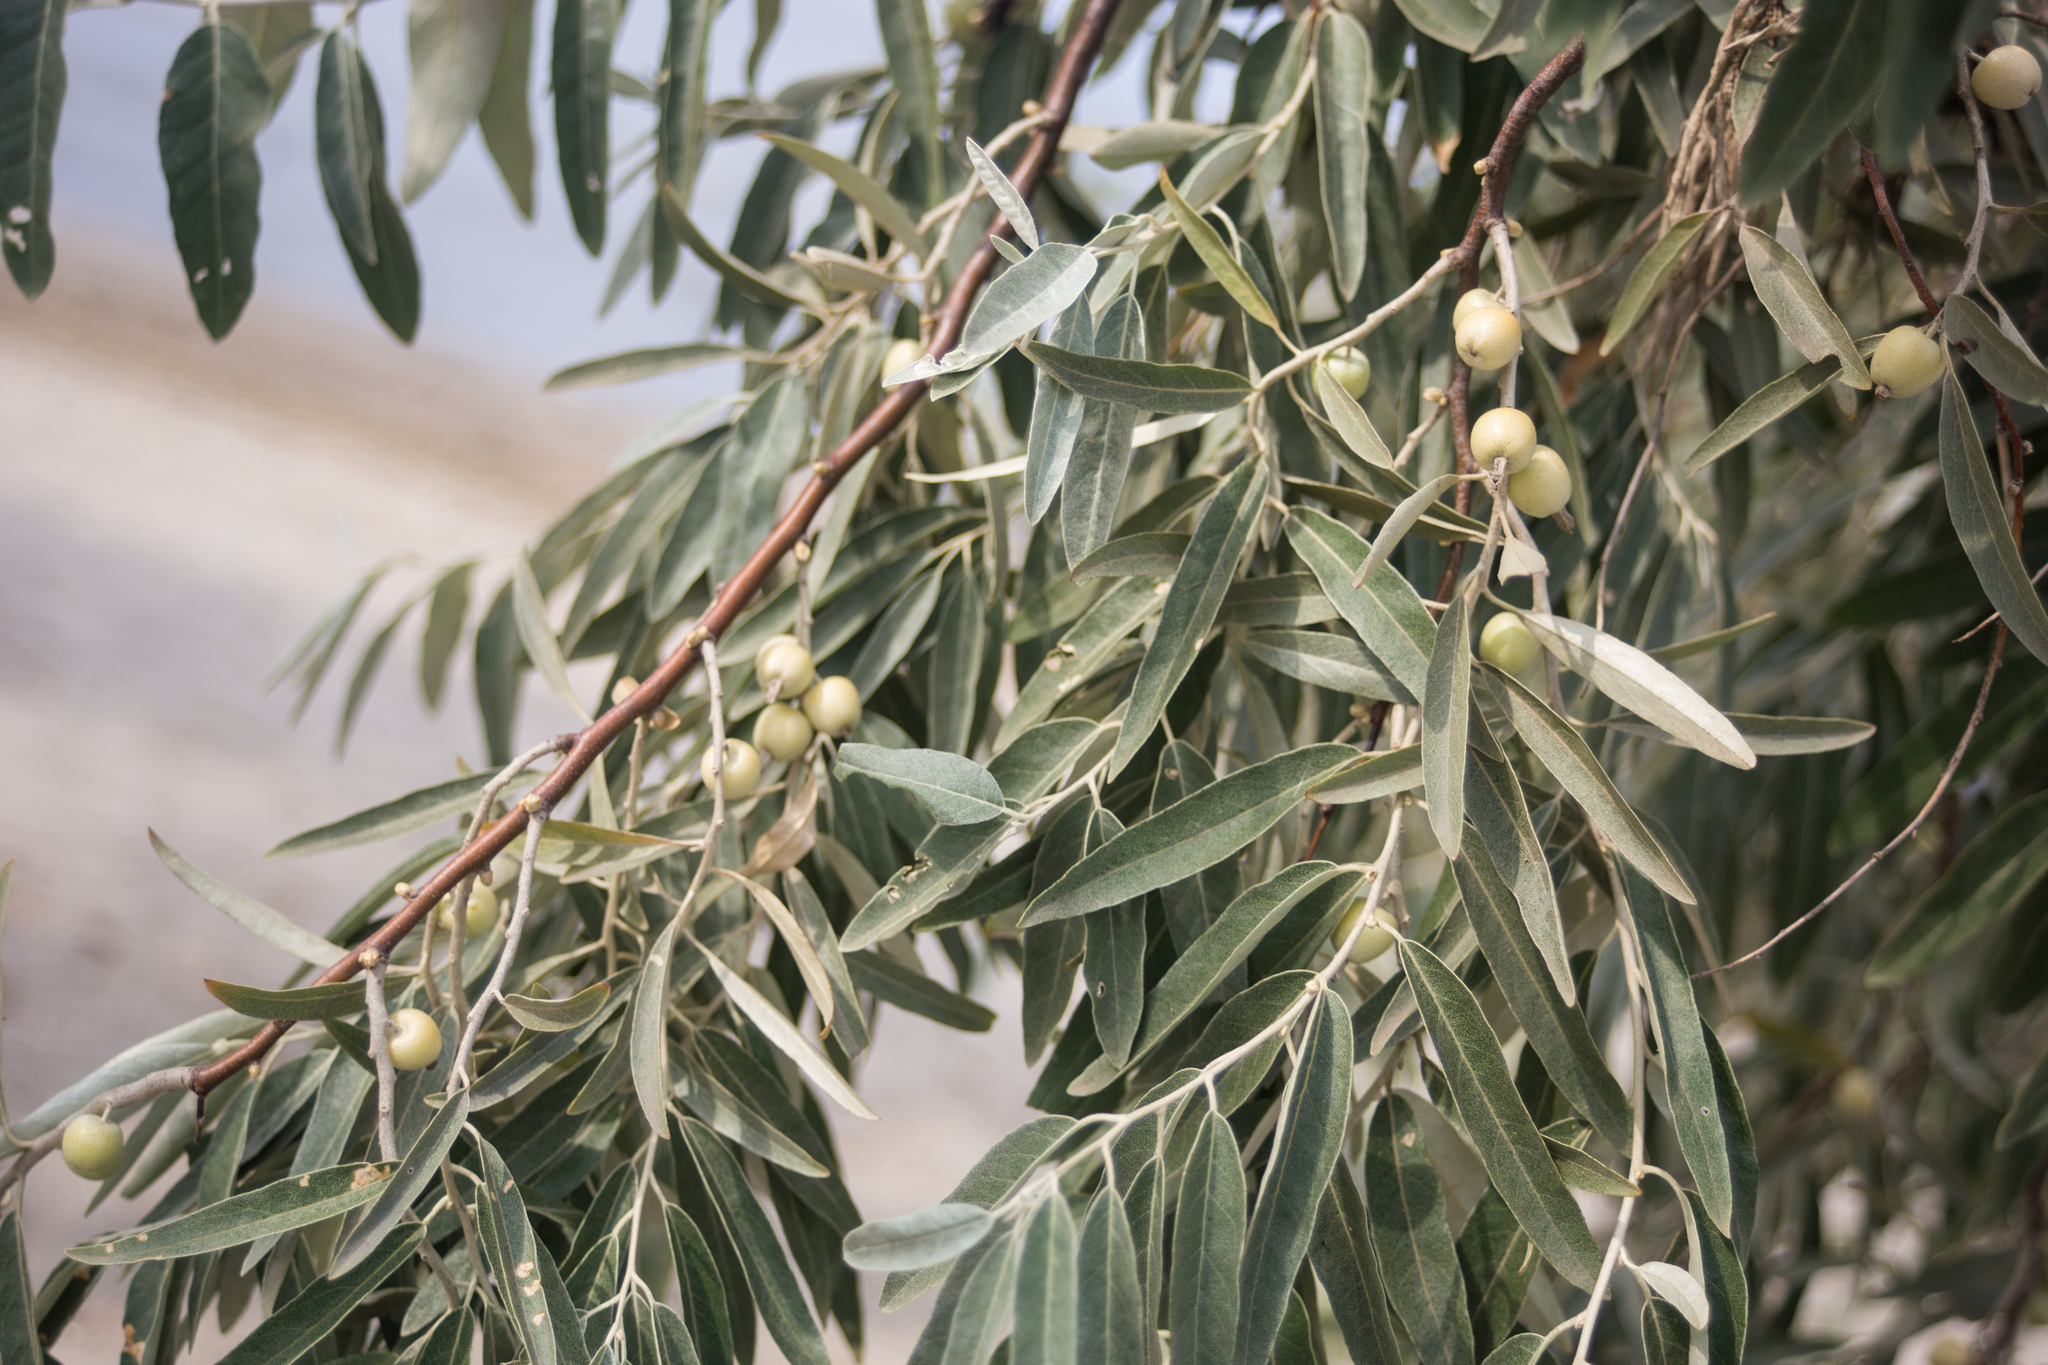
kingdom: Plantae
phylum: Tracheophyta
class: Magnoliopsida
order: Rosales
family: Elaeagnaceae
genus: Elaeagnus
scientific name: Elaeagnus angustifolia
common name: Russian olive
